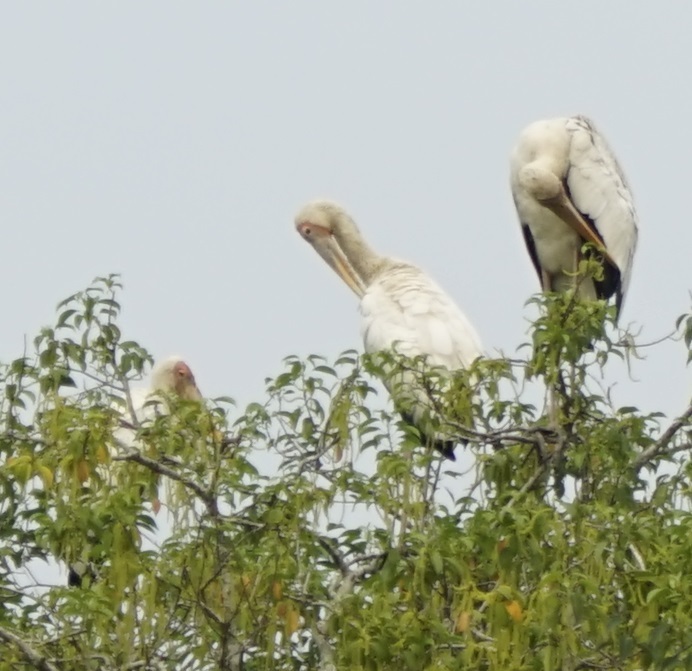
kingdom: Animalia
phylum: Chordata
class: Aves
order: Ciconiiformes
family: Ciconiidae
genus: Mycteria
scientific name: Mycteria cinerea
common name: Milky stork
